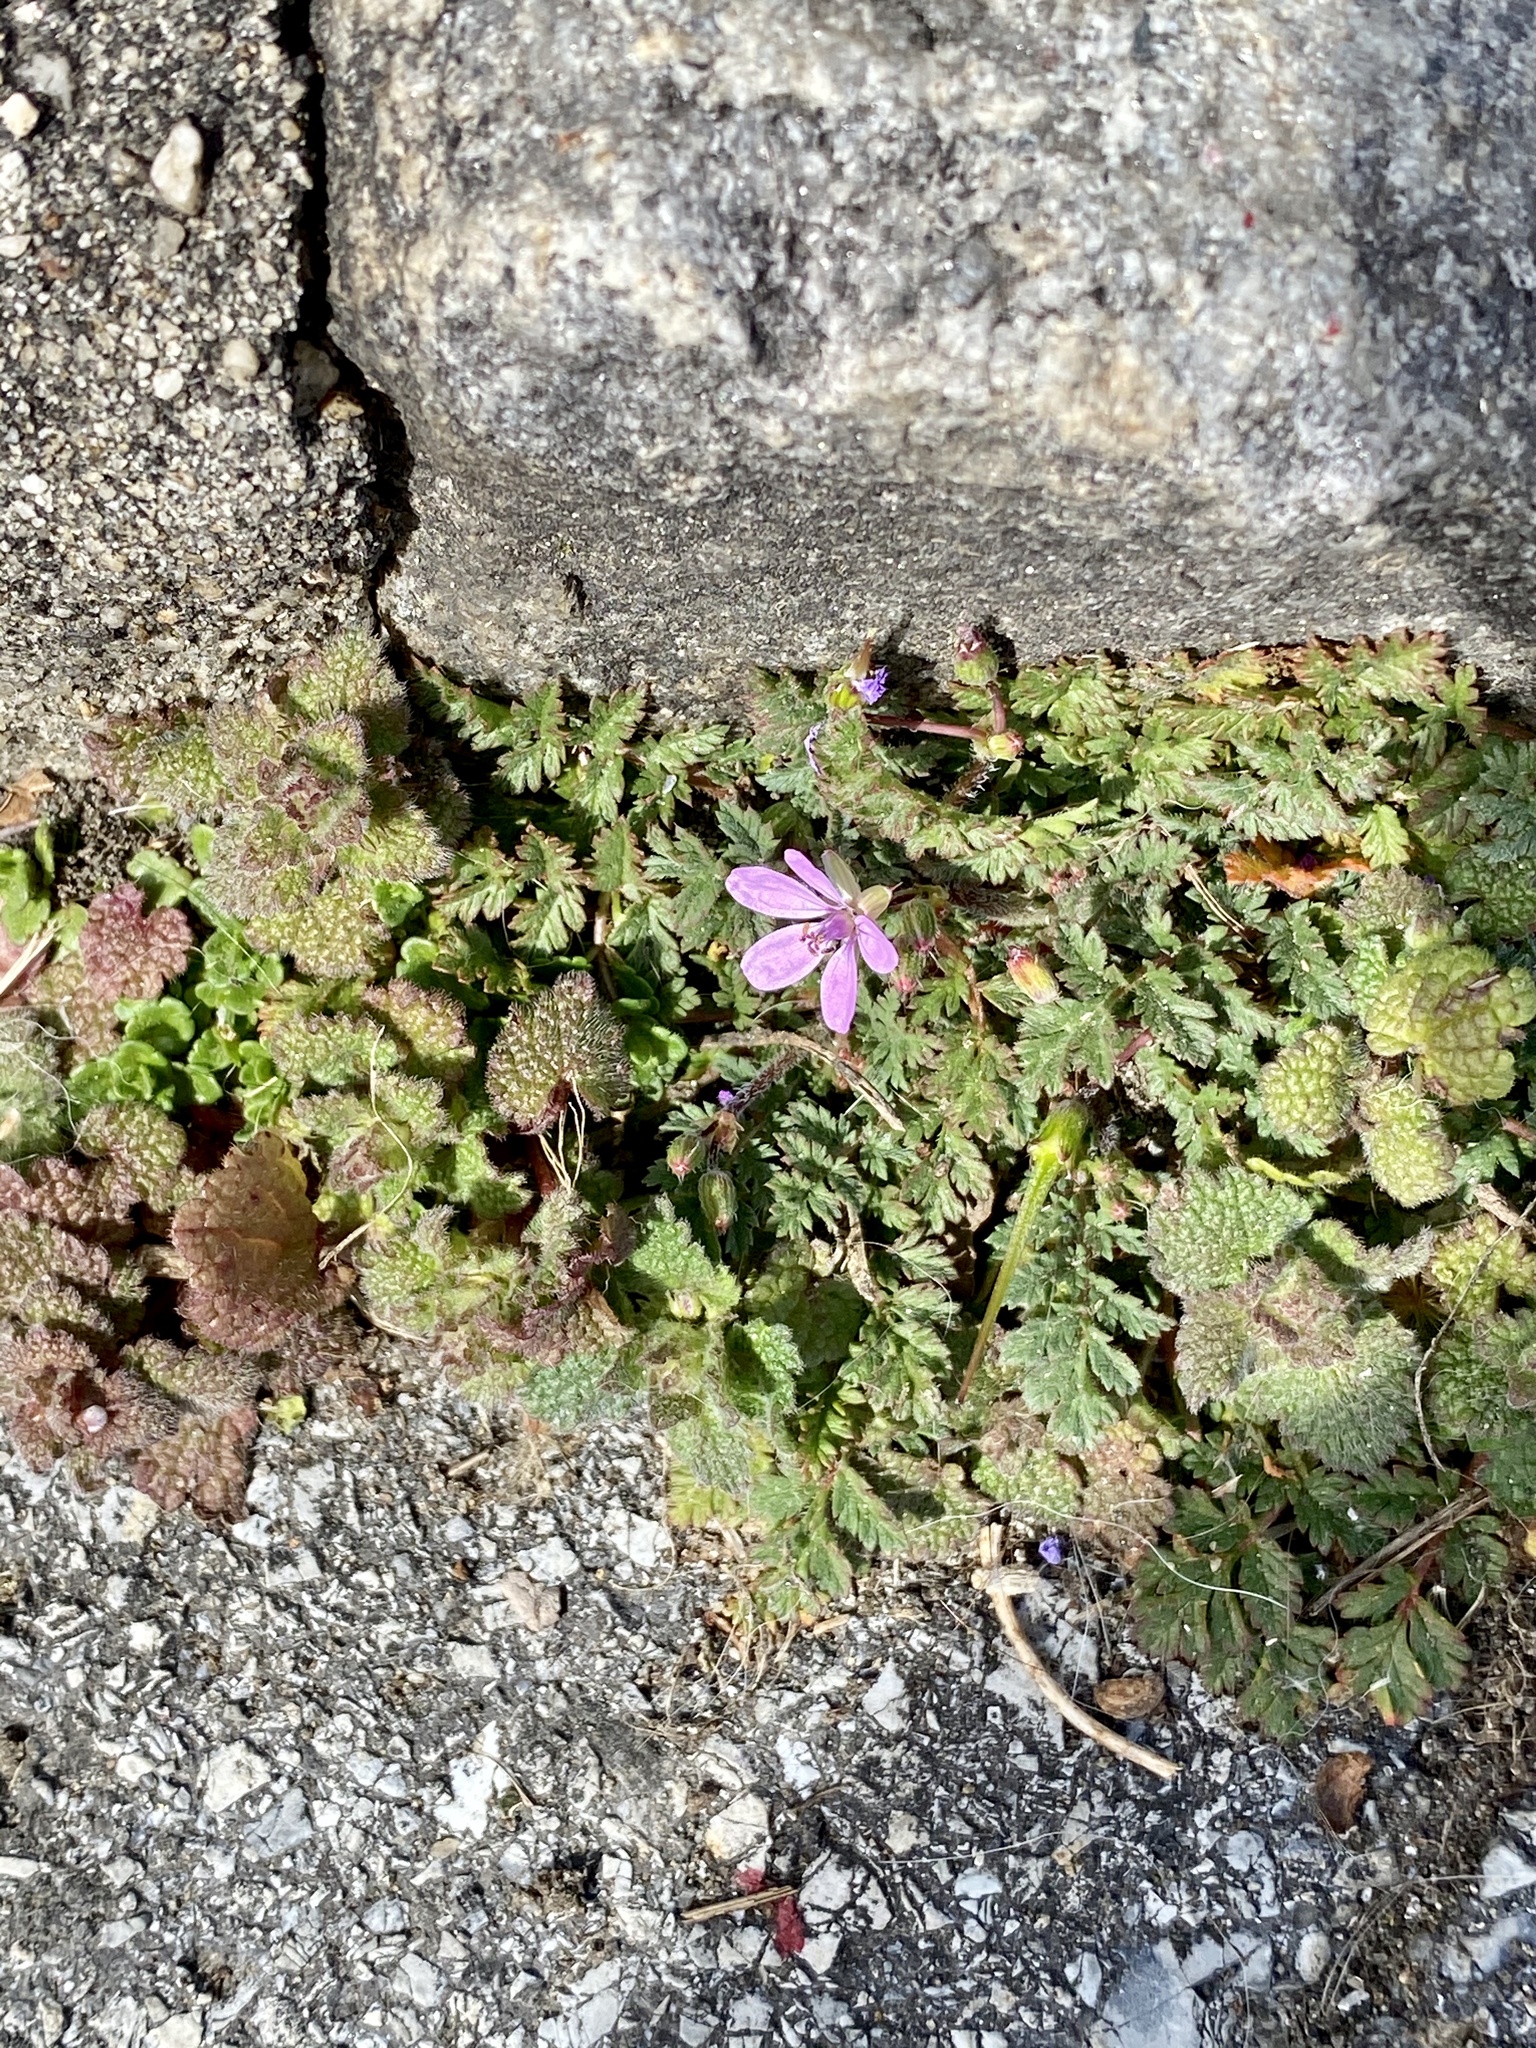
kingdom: Plantae
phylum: Tracheophyta
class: Magnoliopsida
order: Geraniales
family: Geraniaceae
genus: Erodium
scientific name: Erodium cicutarium
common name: Common stork's-bill
